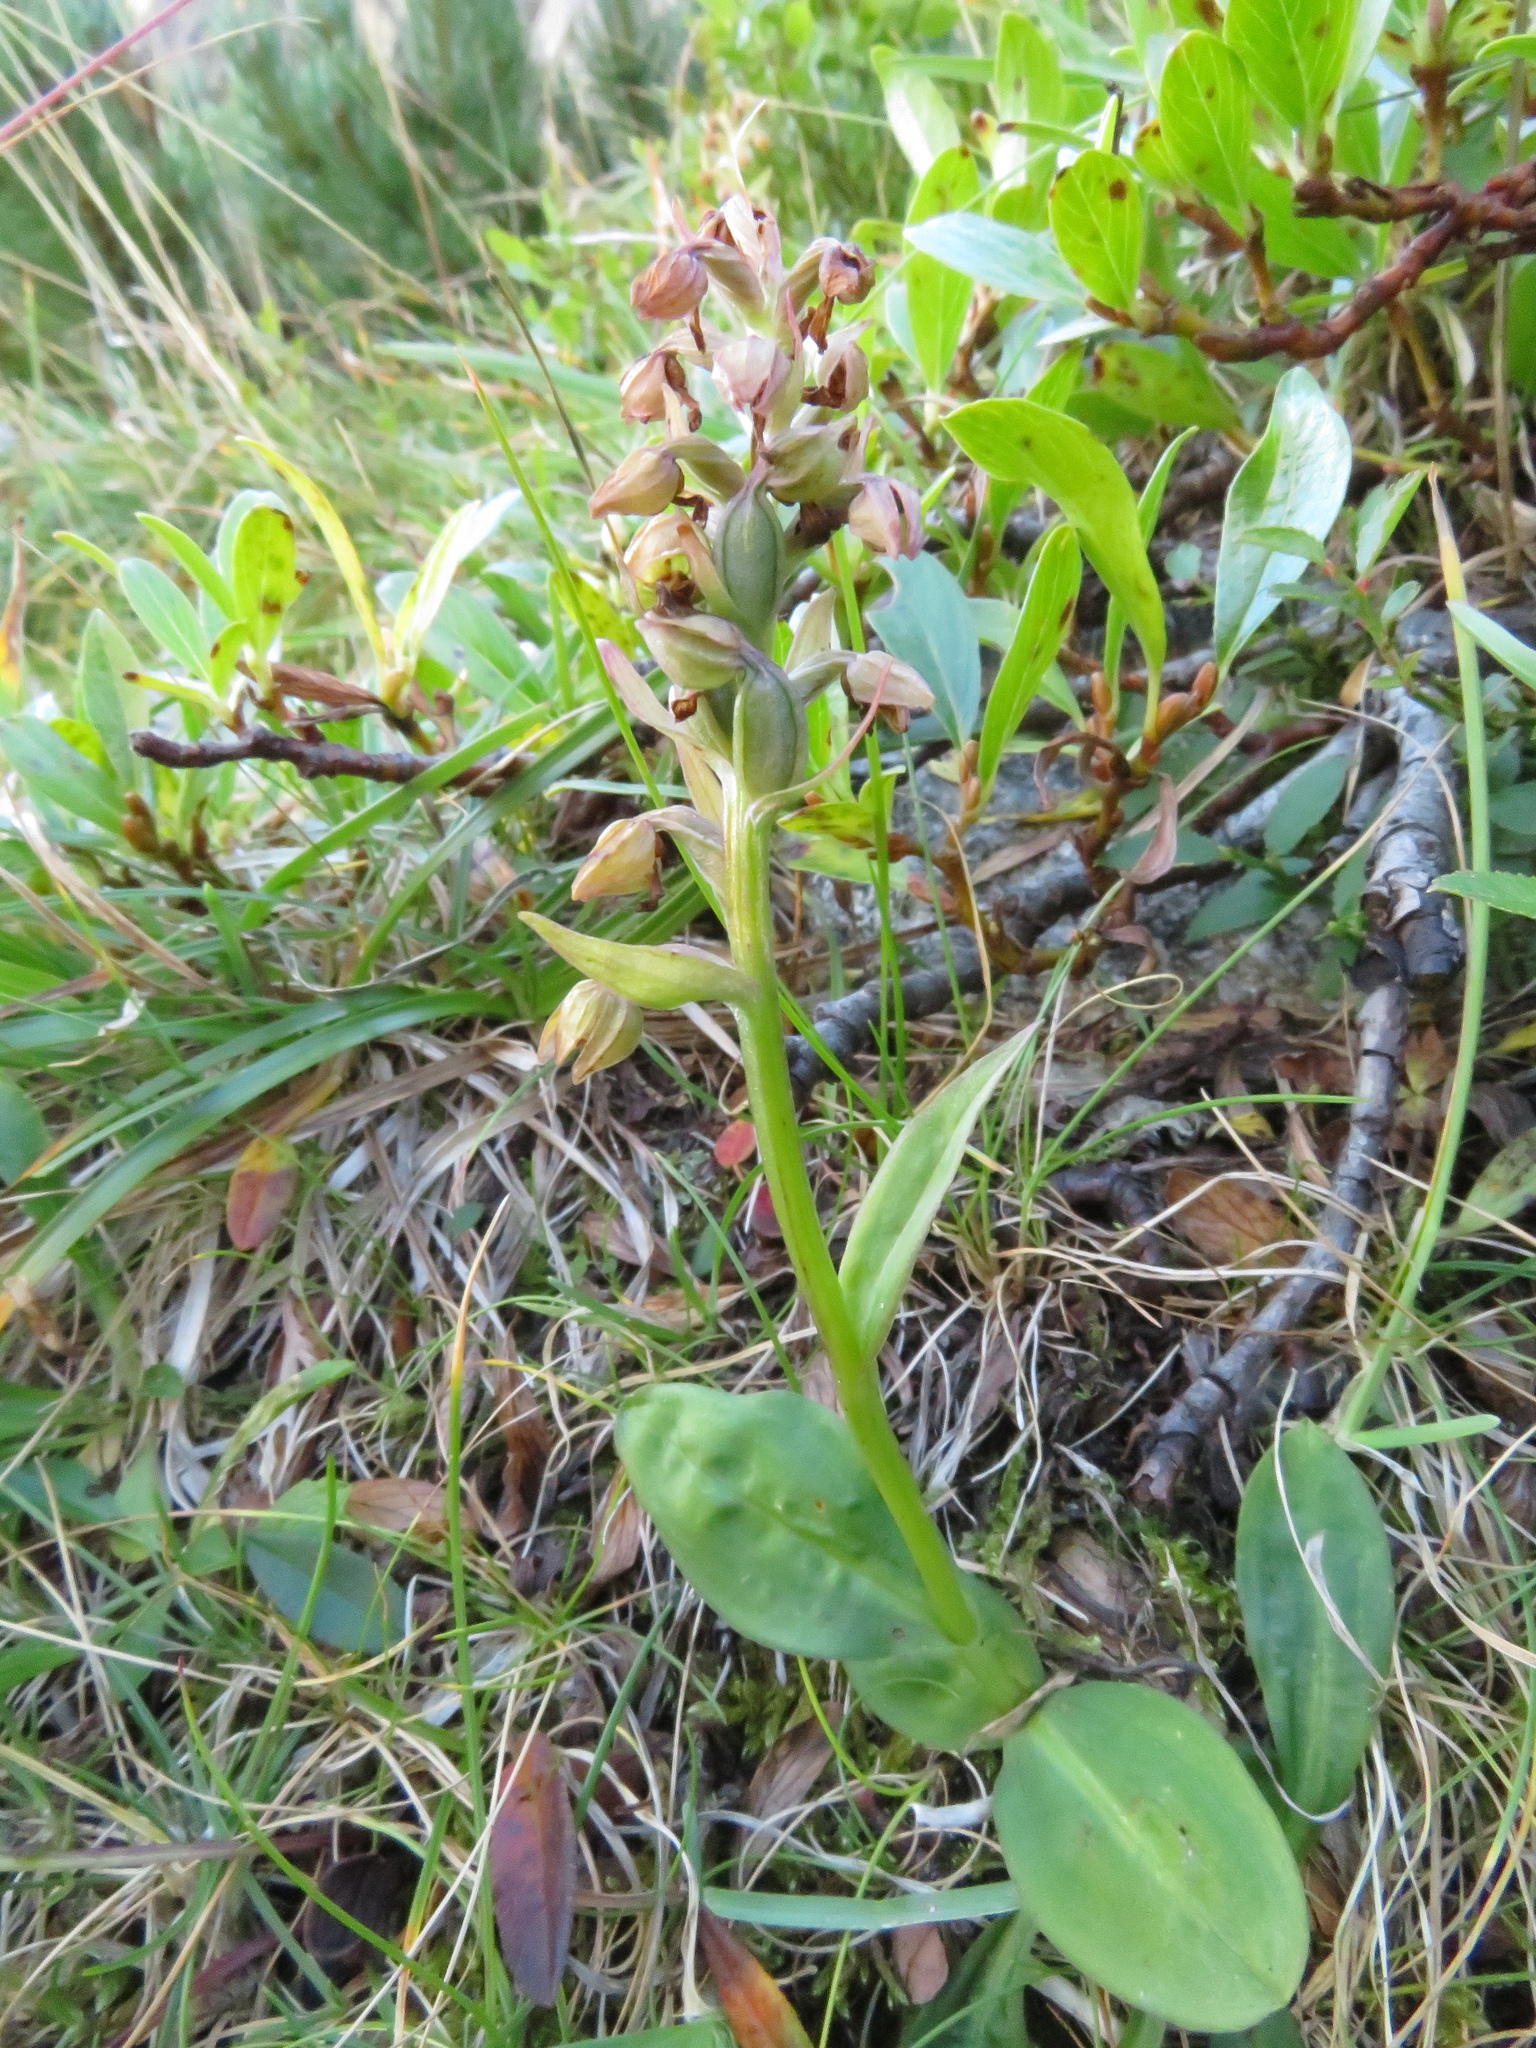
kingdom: Plantae
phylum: Tracheophyta
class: Liliopsida
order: Asparagales
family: Orchidaceae
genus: Dactylorhiza
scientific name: Dactylorhiza viridis
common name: Longbract frog orchid
